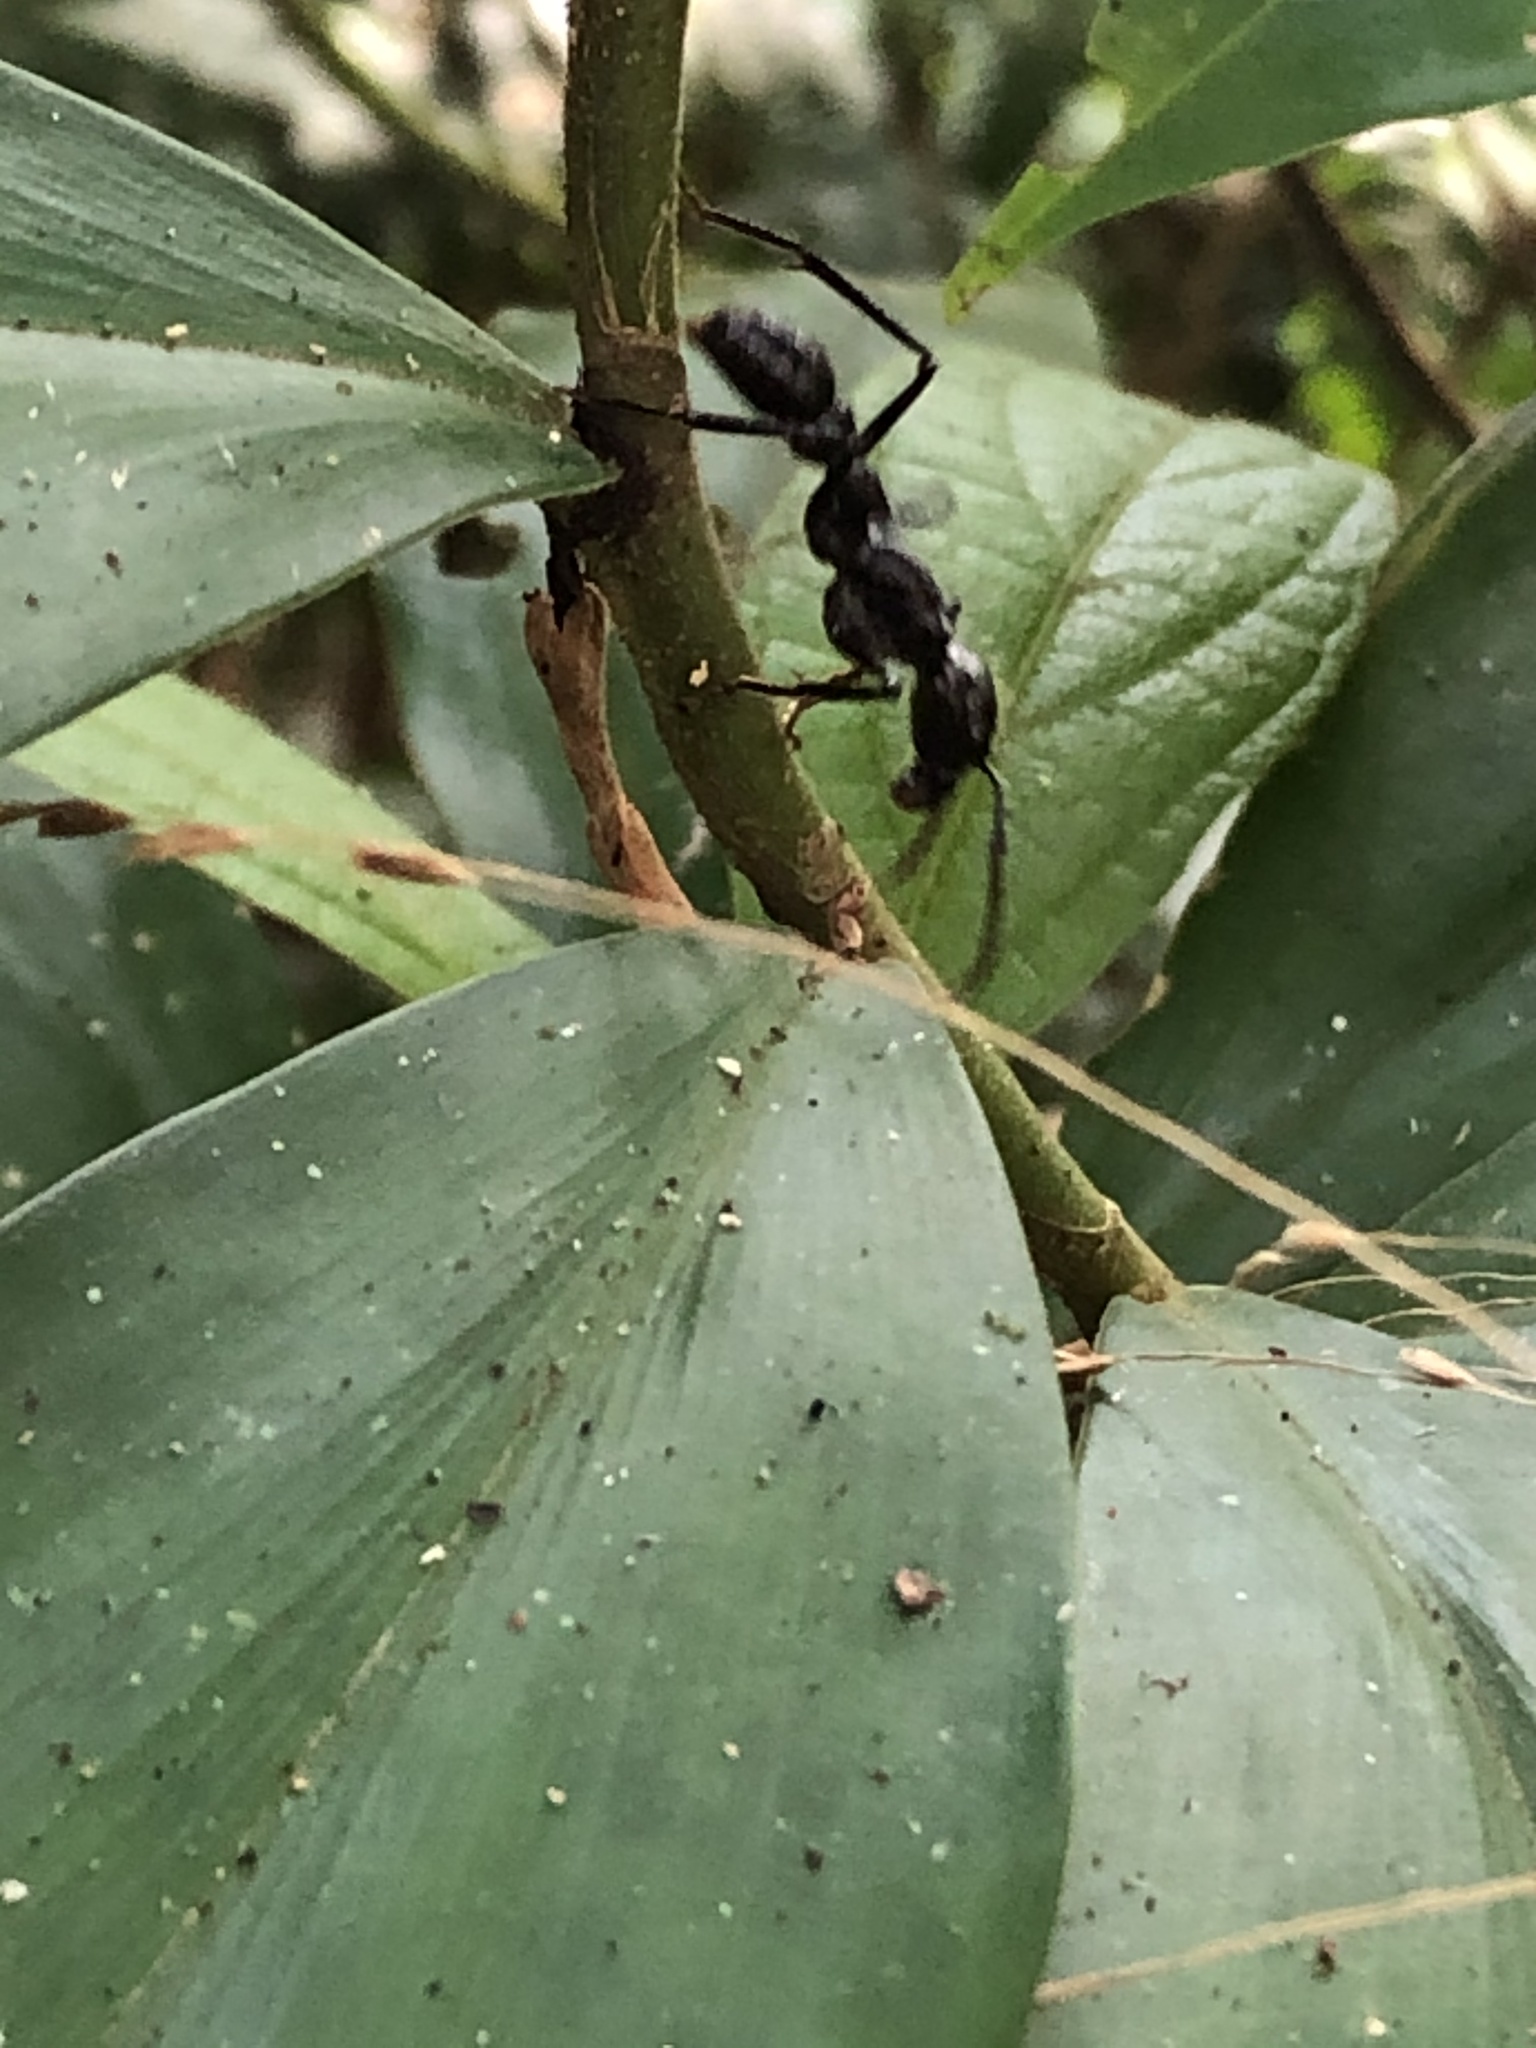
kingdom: Animalia
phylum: Arthropoda
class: Insecta
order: Hymenoptera
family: Formicidae
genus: Paraponera
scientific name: Paraponera clavata
